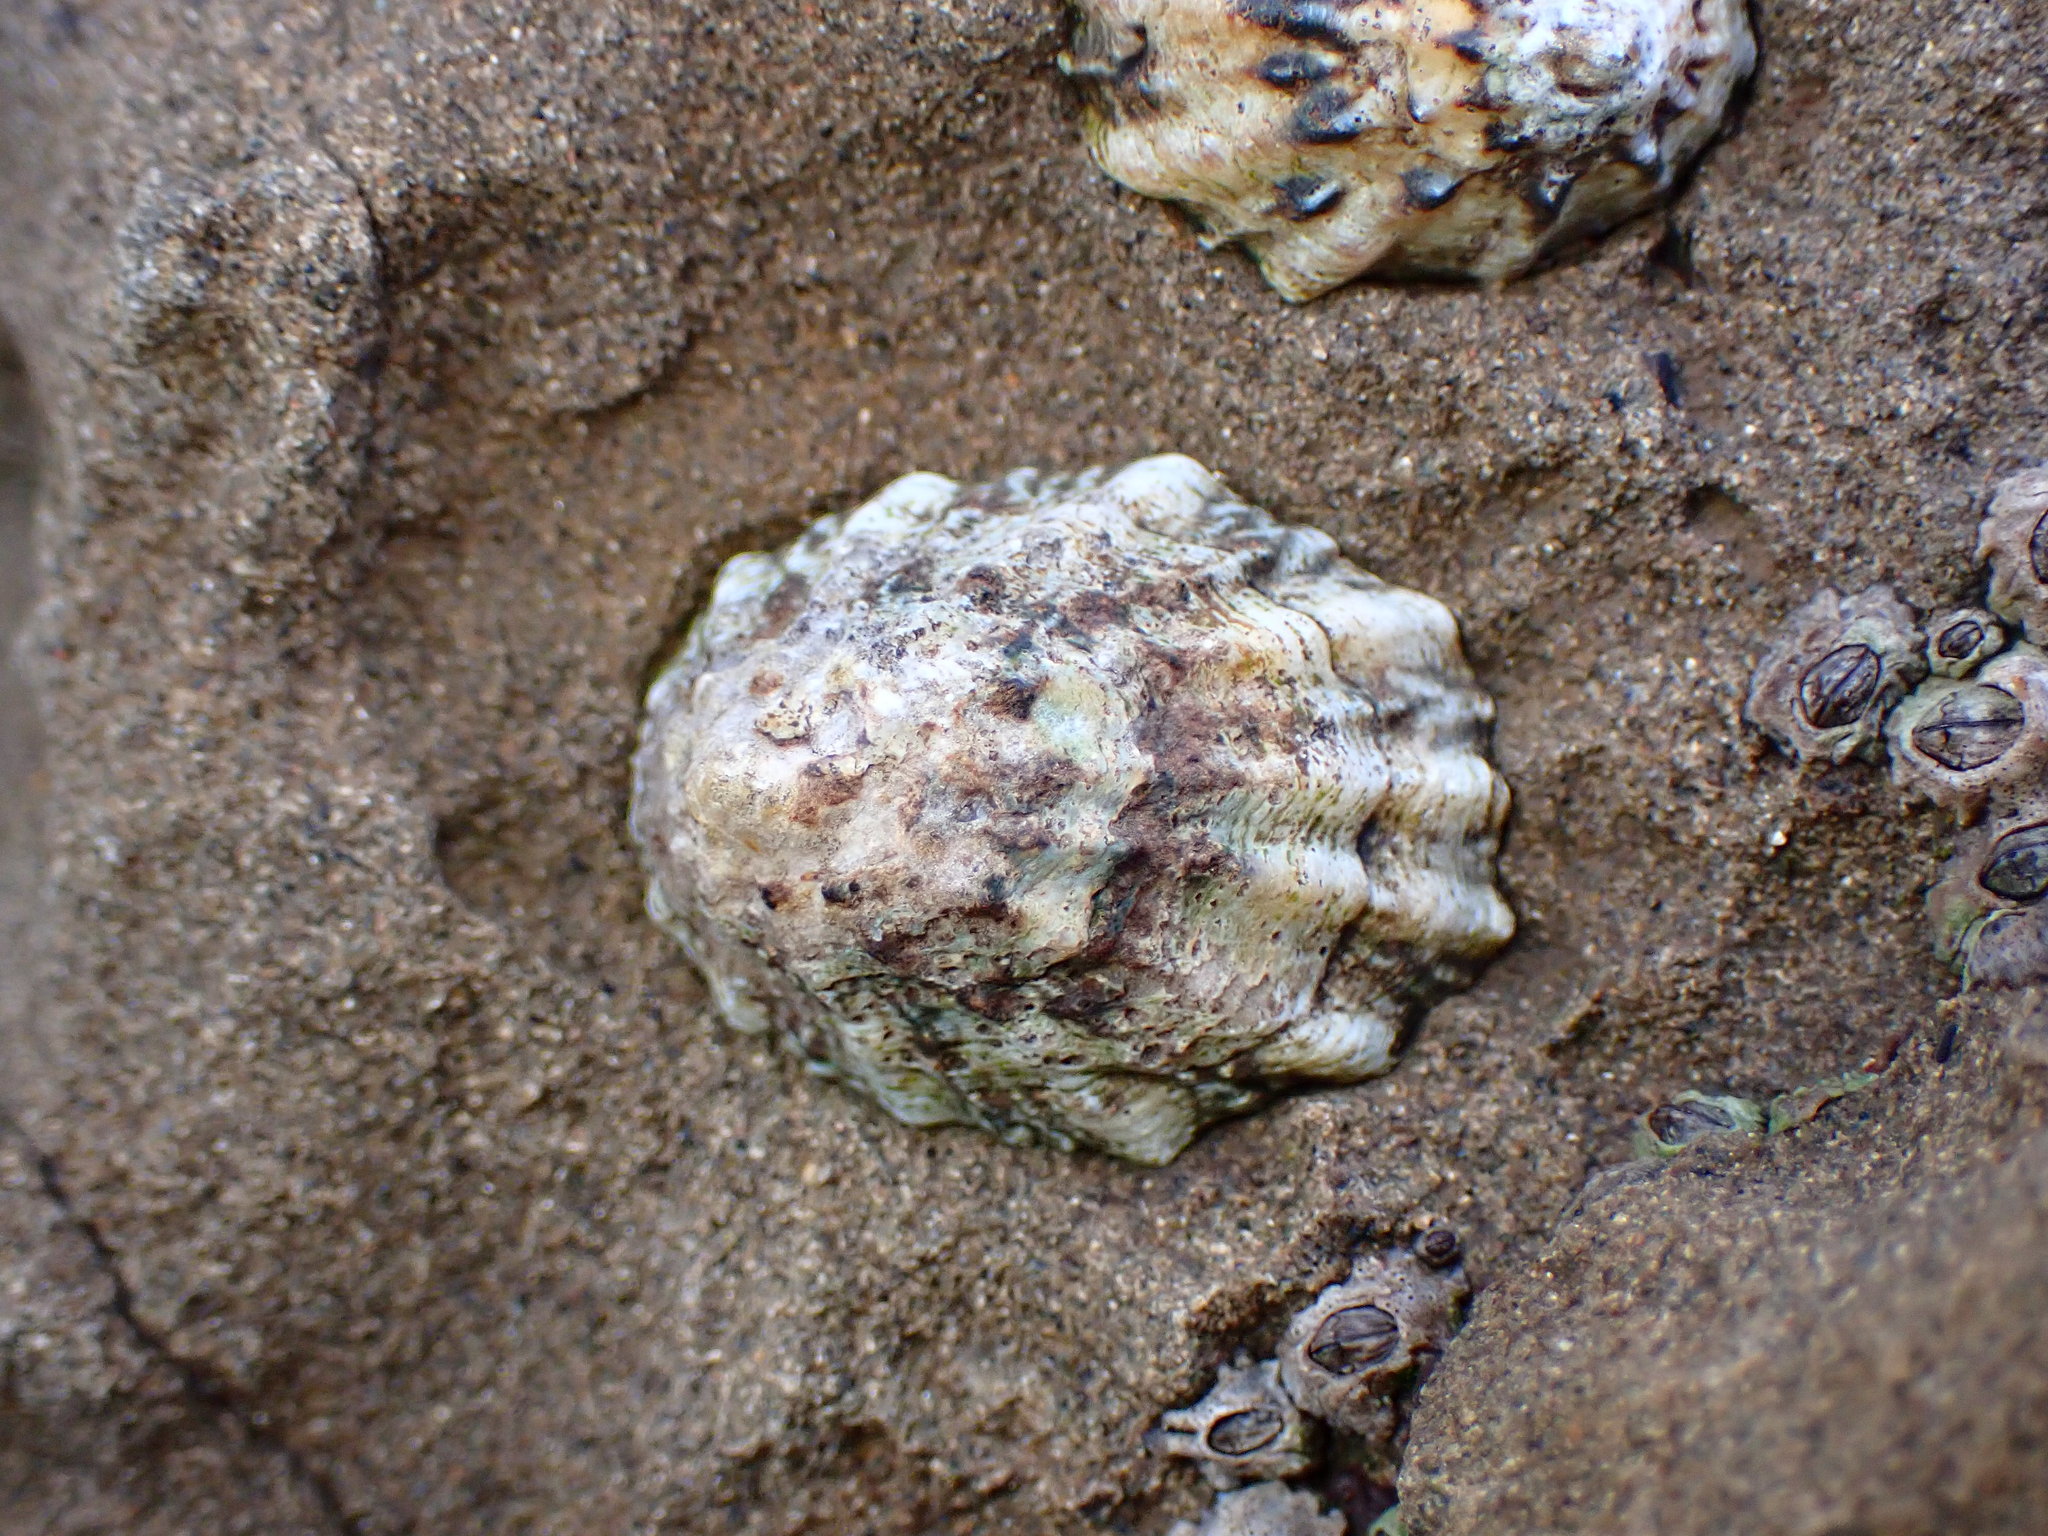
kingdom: Animalia
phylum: Mollusca
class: Gastropoda
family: Lottiidae
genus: Lottia
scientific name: Lottia scabra
